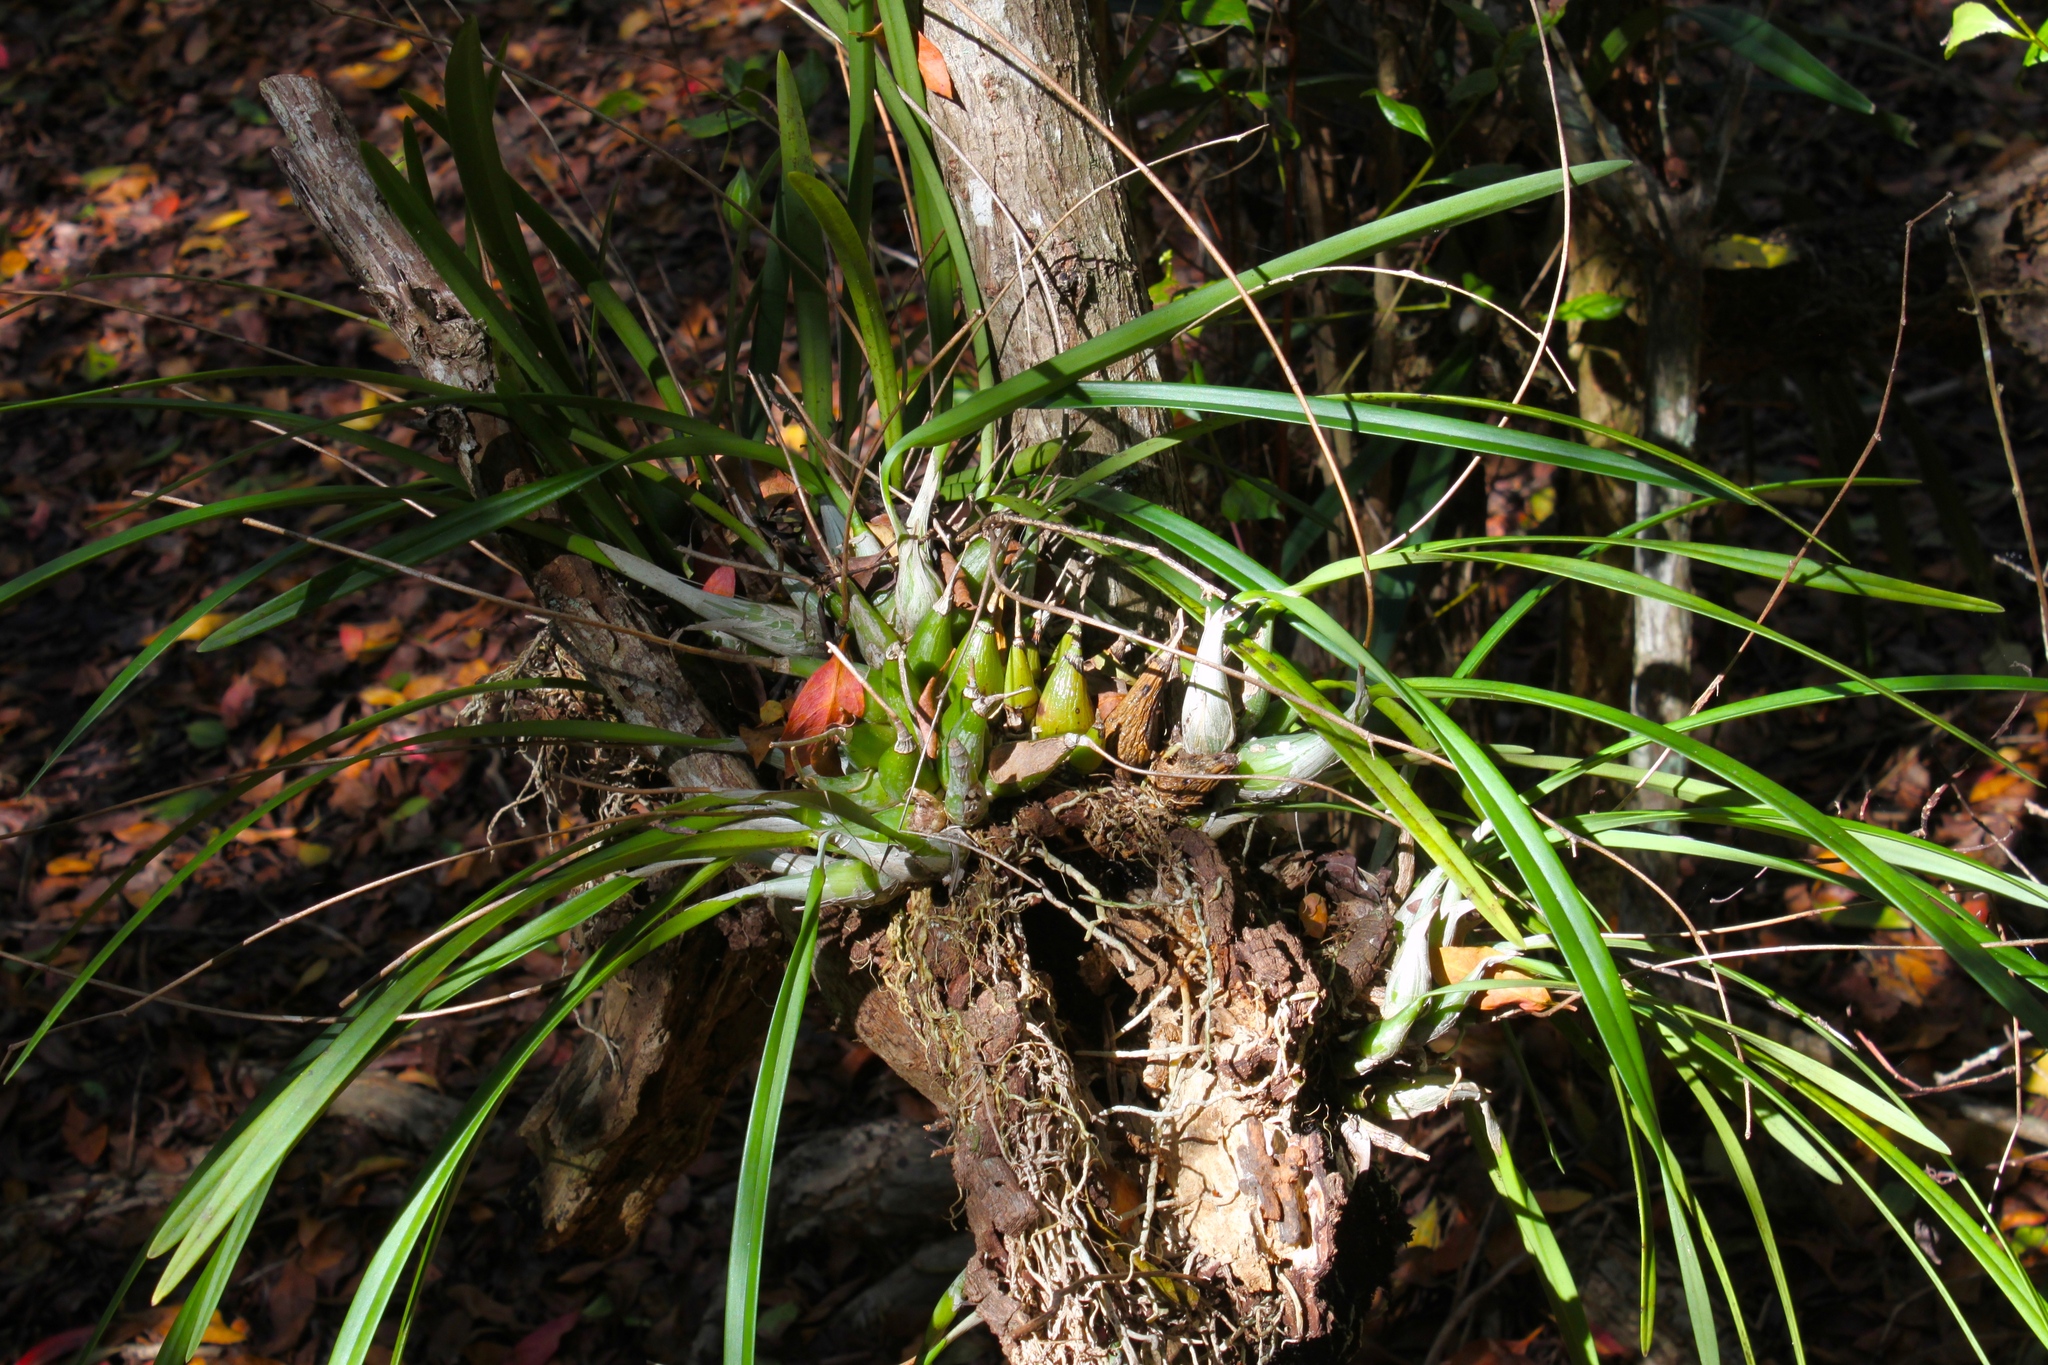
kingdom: Plantae
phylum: Tracheophyta
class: Liliopsida
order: Asparagales
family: Orchidaceae
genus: Encyclia
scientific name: Encyclia tampensis
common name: Florida butterfly orchid
